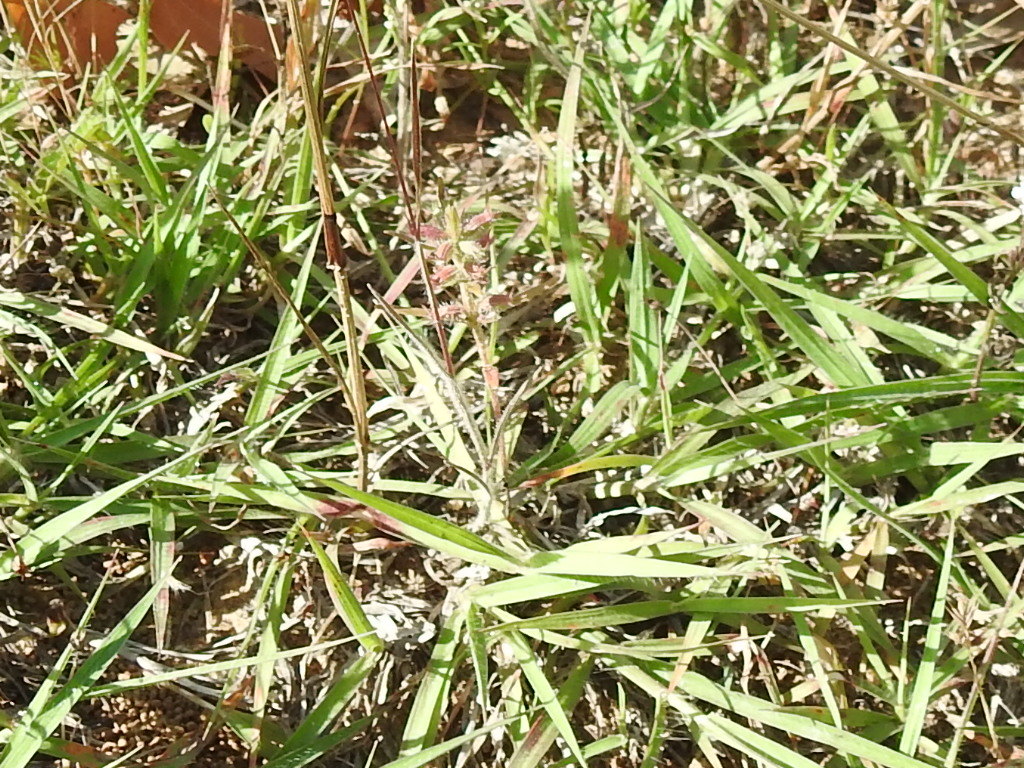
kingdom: Plantae
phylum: Tracheophyta
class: Magnoliopsida
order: Lamiales
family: Lamiaceae
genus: Hedeoma
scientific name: Hedeoma hispida
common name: Mock pennyroyal
